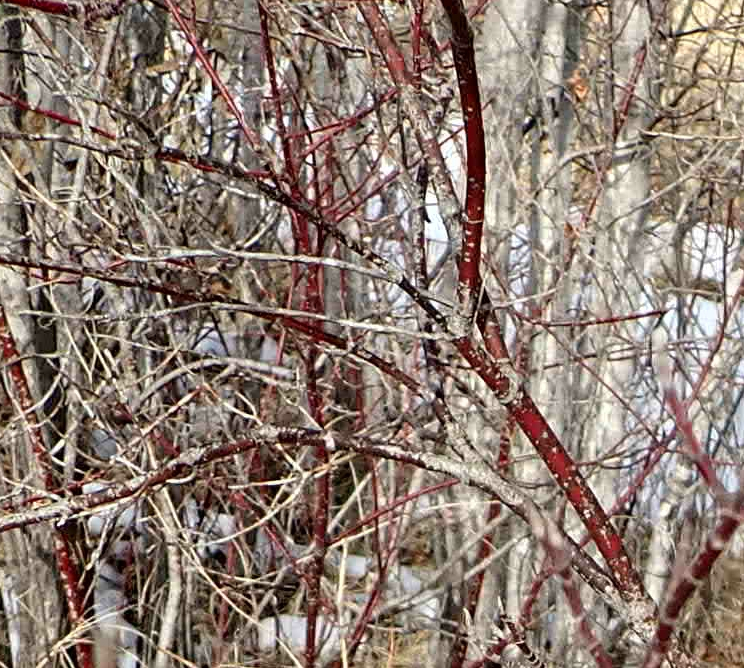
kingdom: Plantae
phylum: Tracheophyta
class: Magnoliopsida
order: Cornales
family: Cornaceae
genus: Cornus
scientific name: Cornus sericea
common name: Red-osier dogwood
